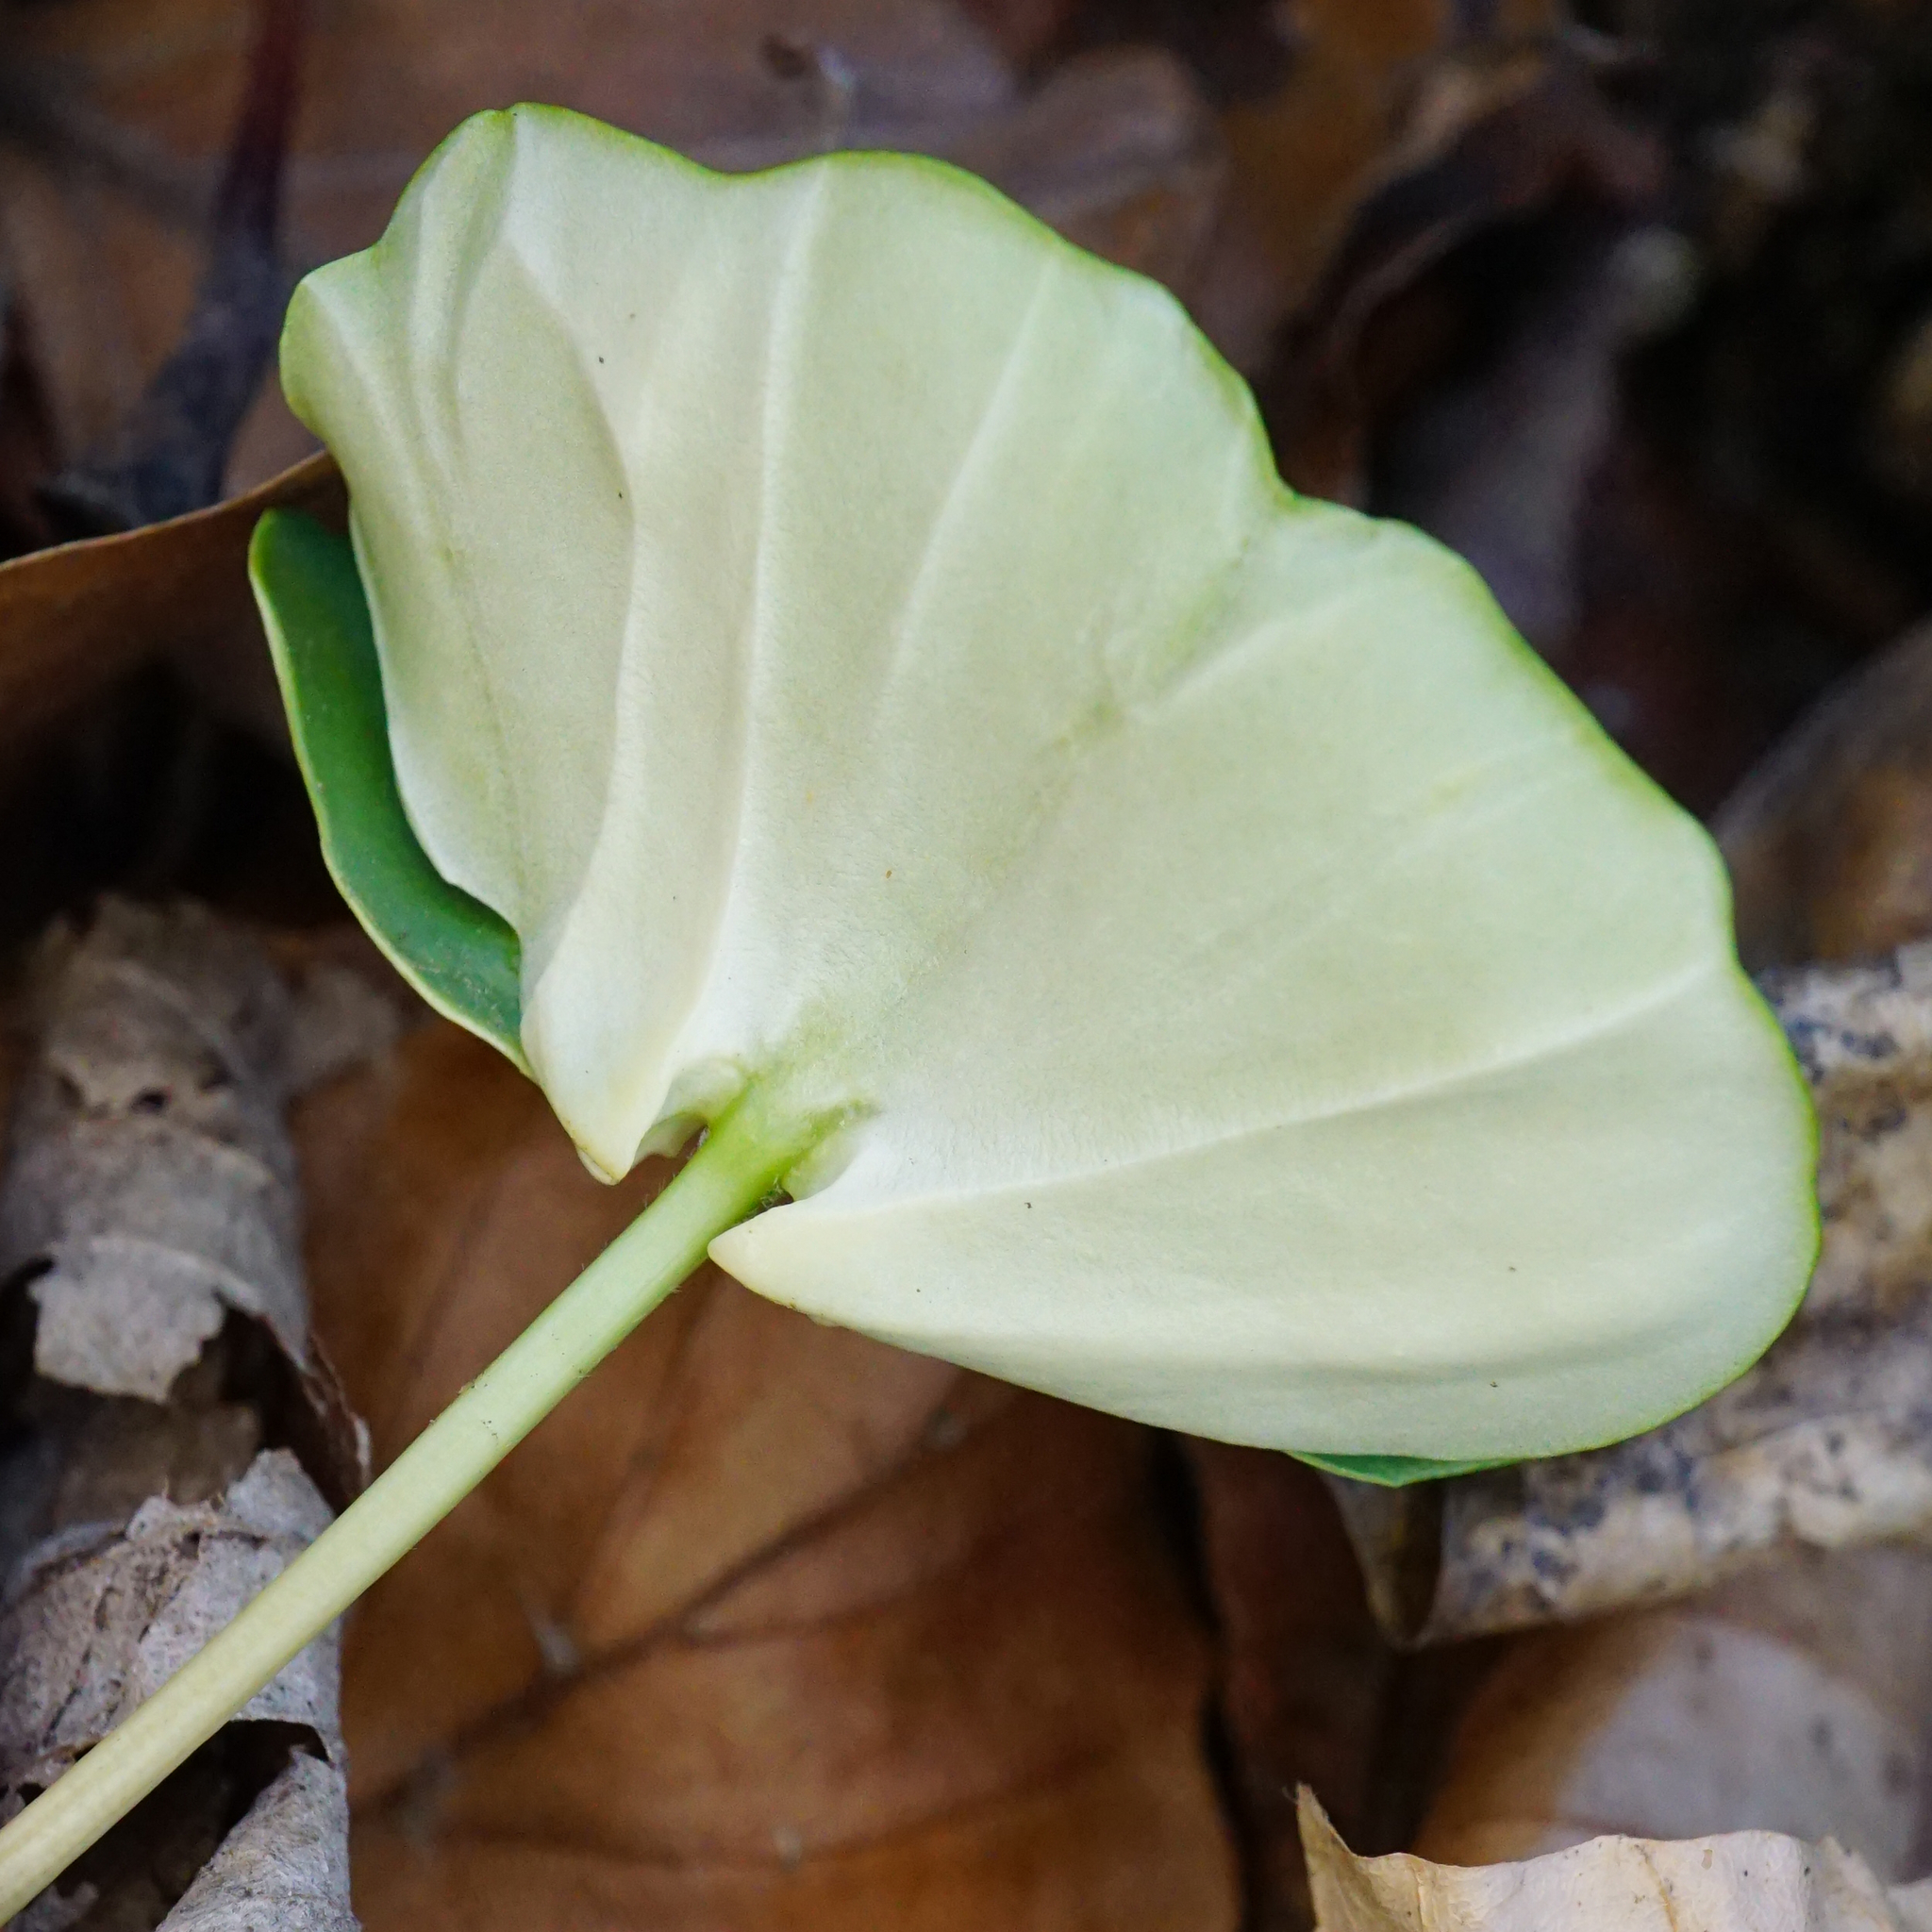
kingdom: Plantae
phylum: Tracheophyta
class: Magnoliopsida
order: Fagales
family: Fagaceae
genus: Fagus
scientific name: Fagus sylvatica
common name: Beech
